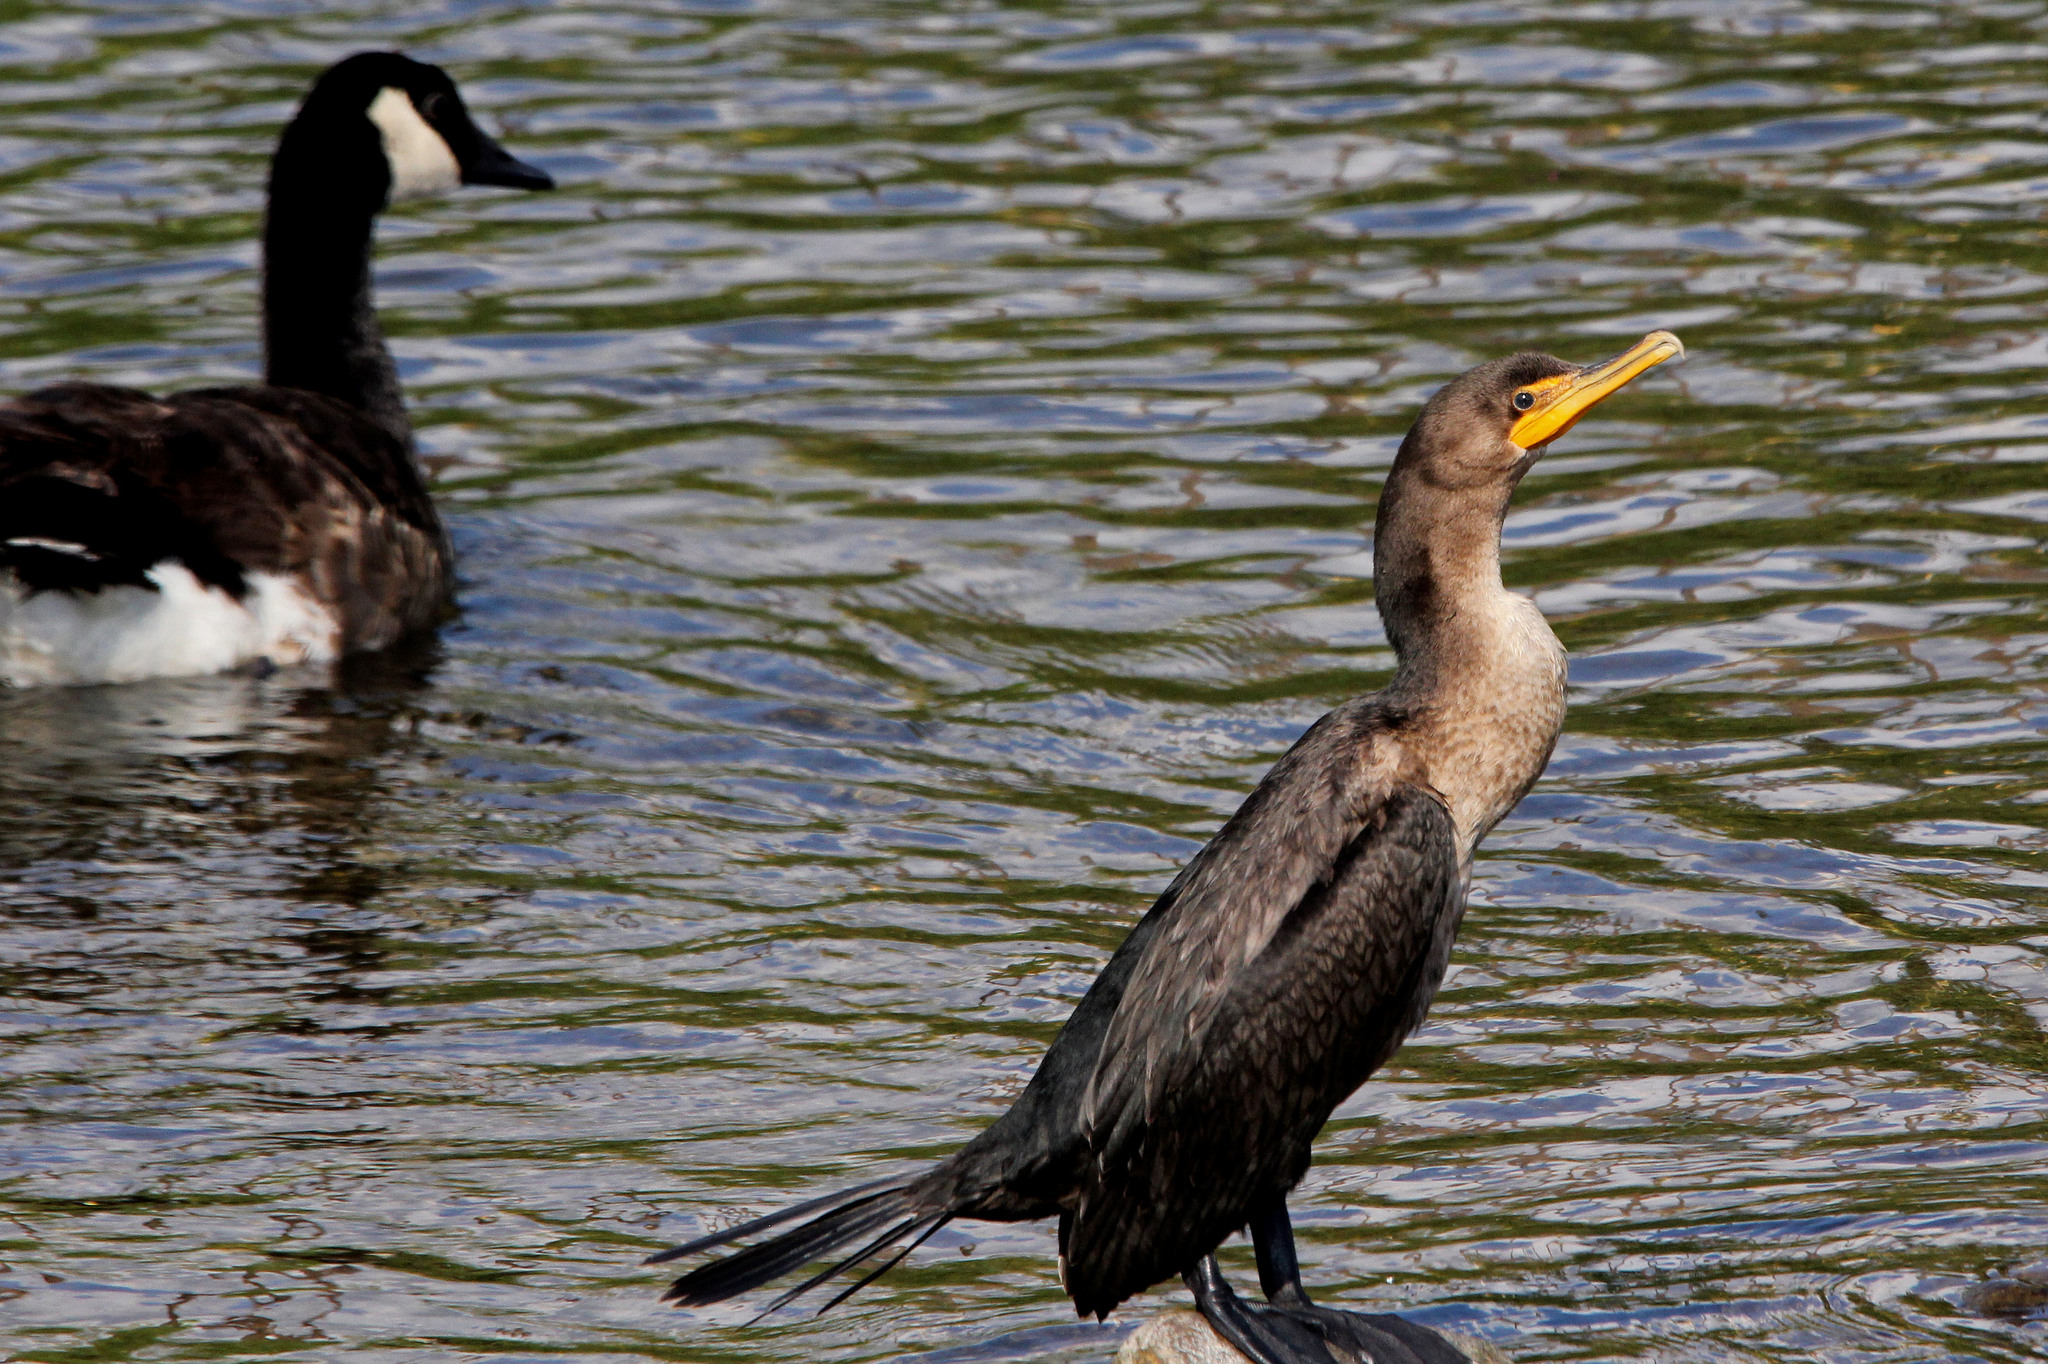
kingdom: Animalia
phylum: Chordata
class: Aves
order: Suliformes
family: Phalacrocoracidae
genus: Phalacrocorax
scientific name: Phalacrocorax auritus
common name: Double-crested cormorant
